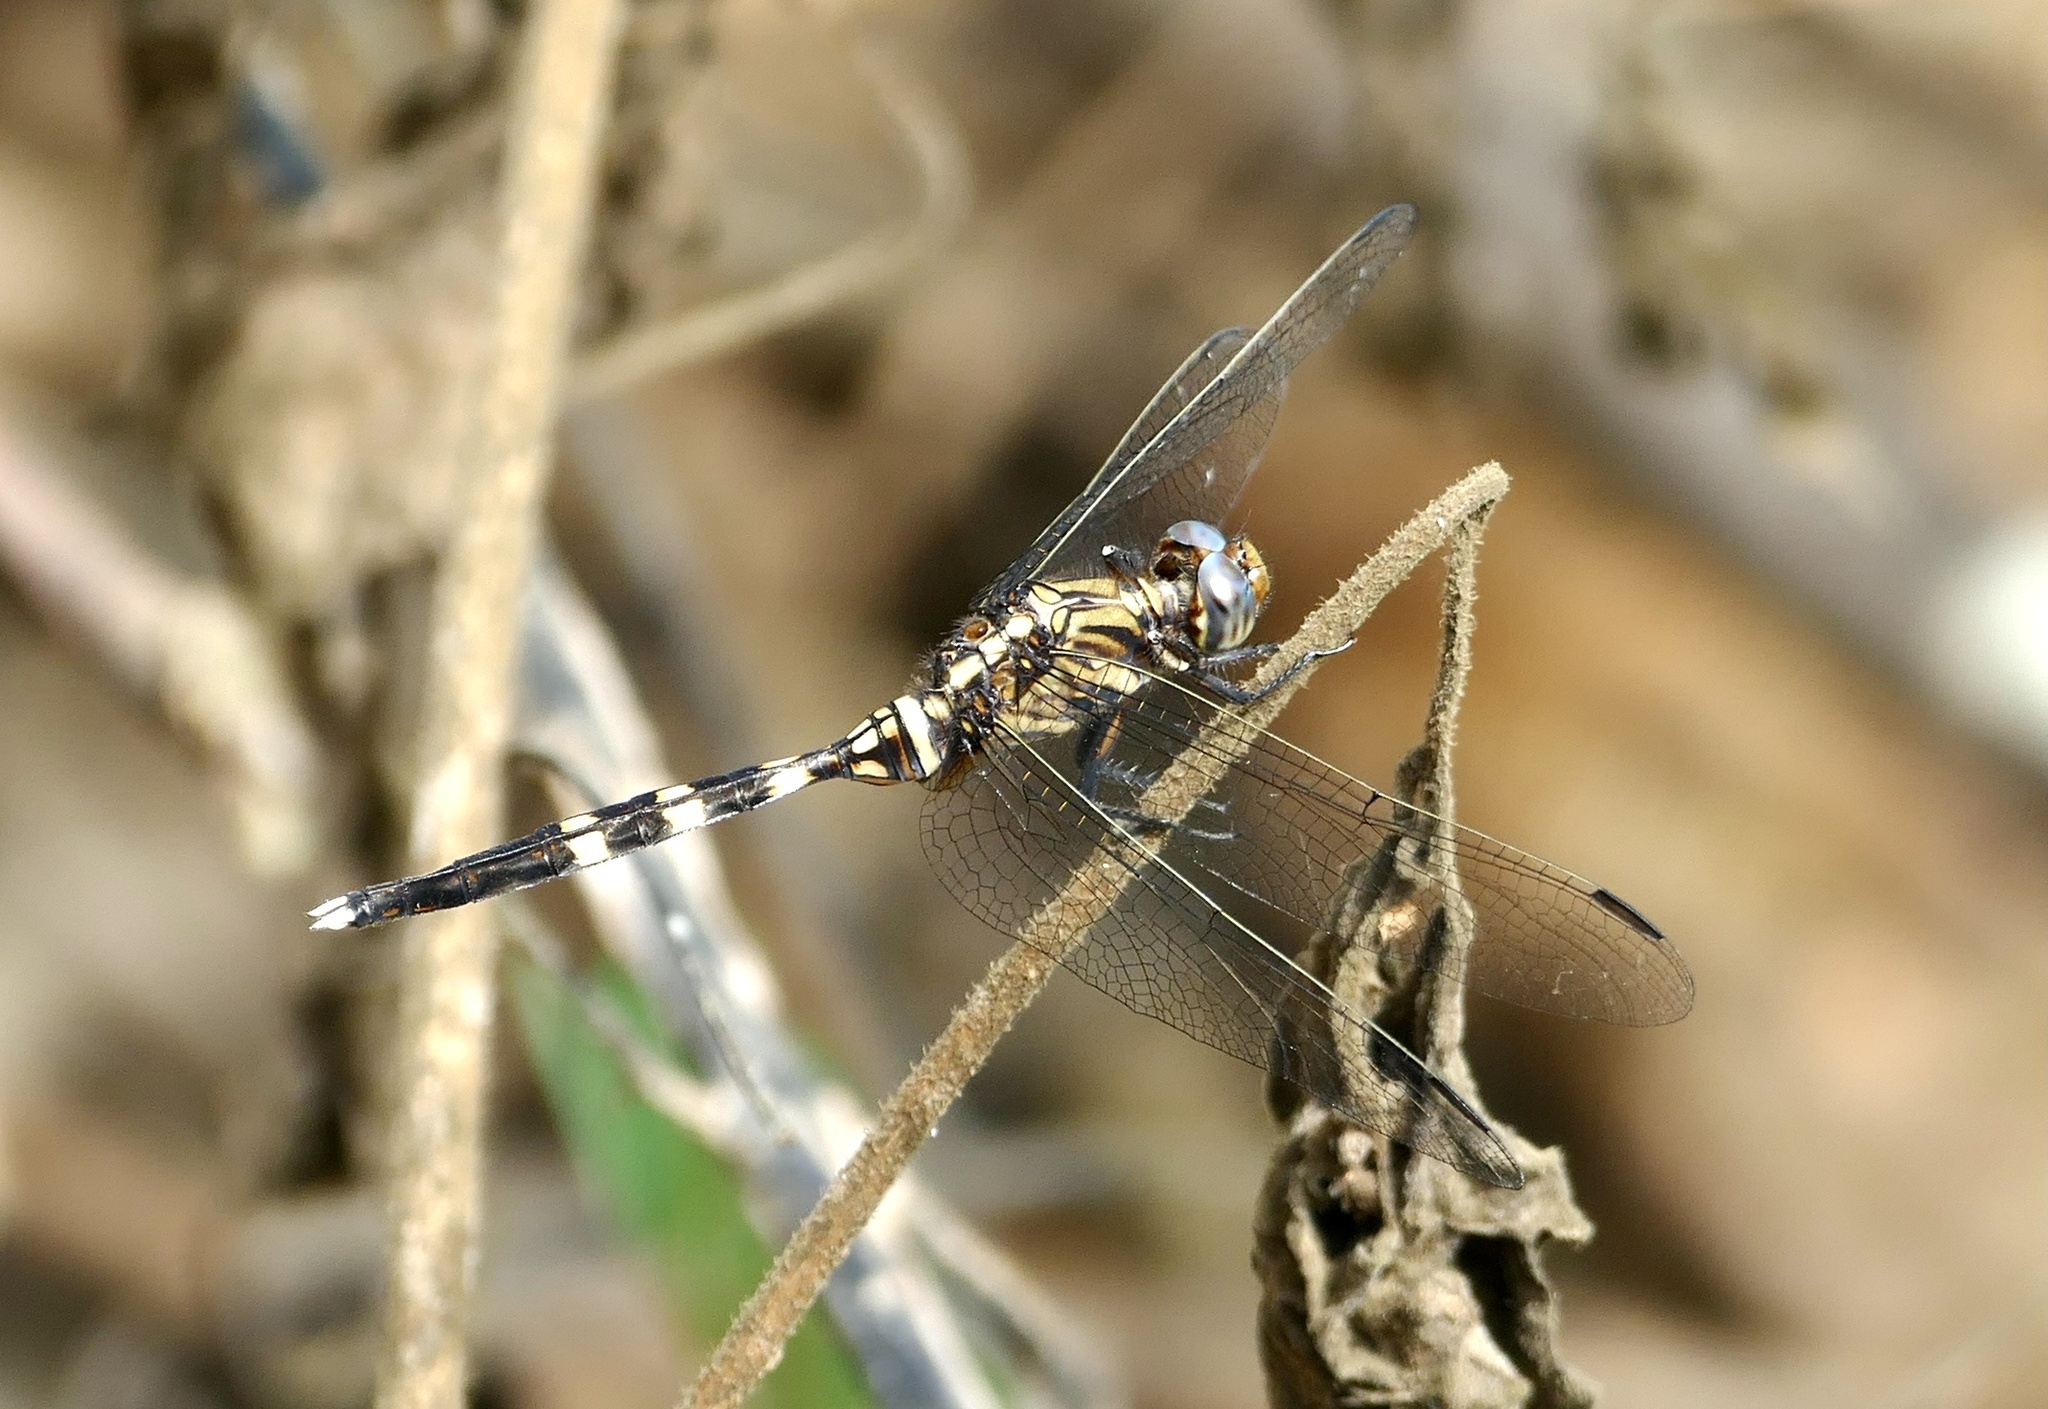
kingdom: Animalia
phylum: Arthropoda
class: Insecta
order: Odonata
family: Libellulidae
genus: Orthetrum
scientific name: Orthetrum stemmale
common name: Bold skimmer
